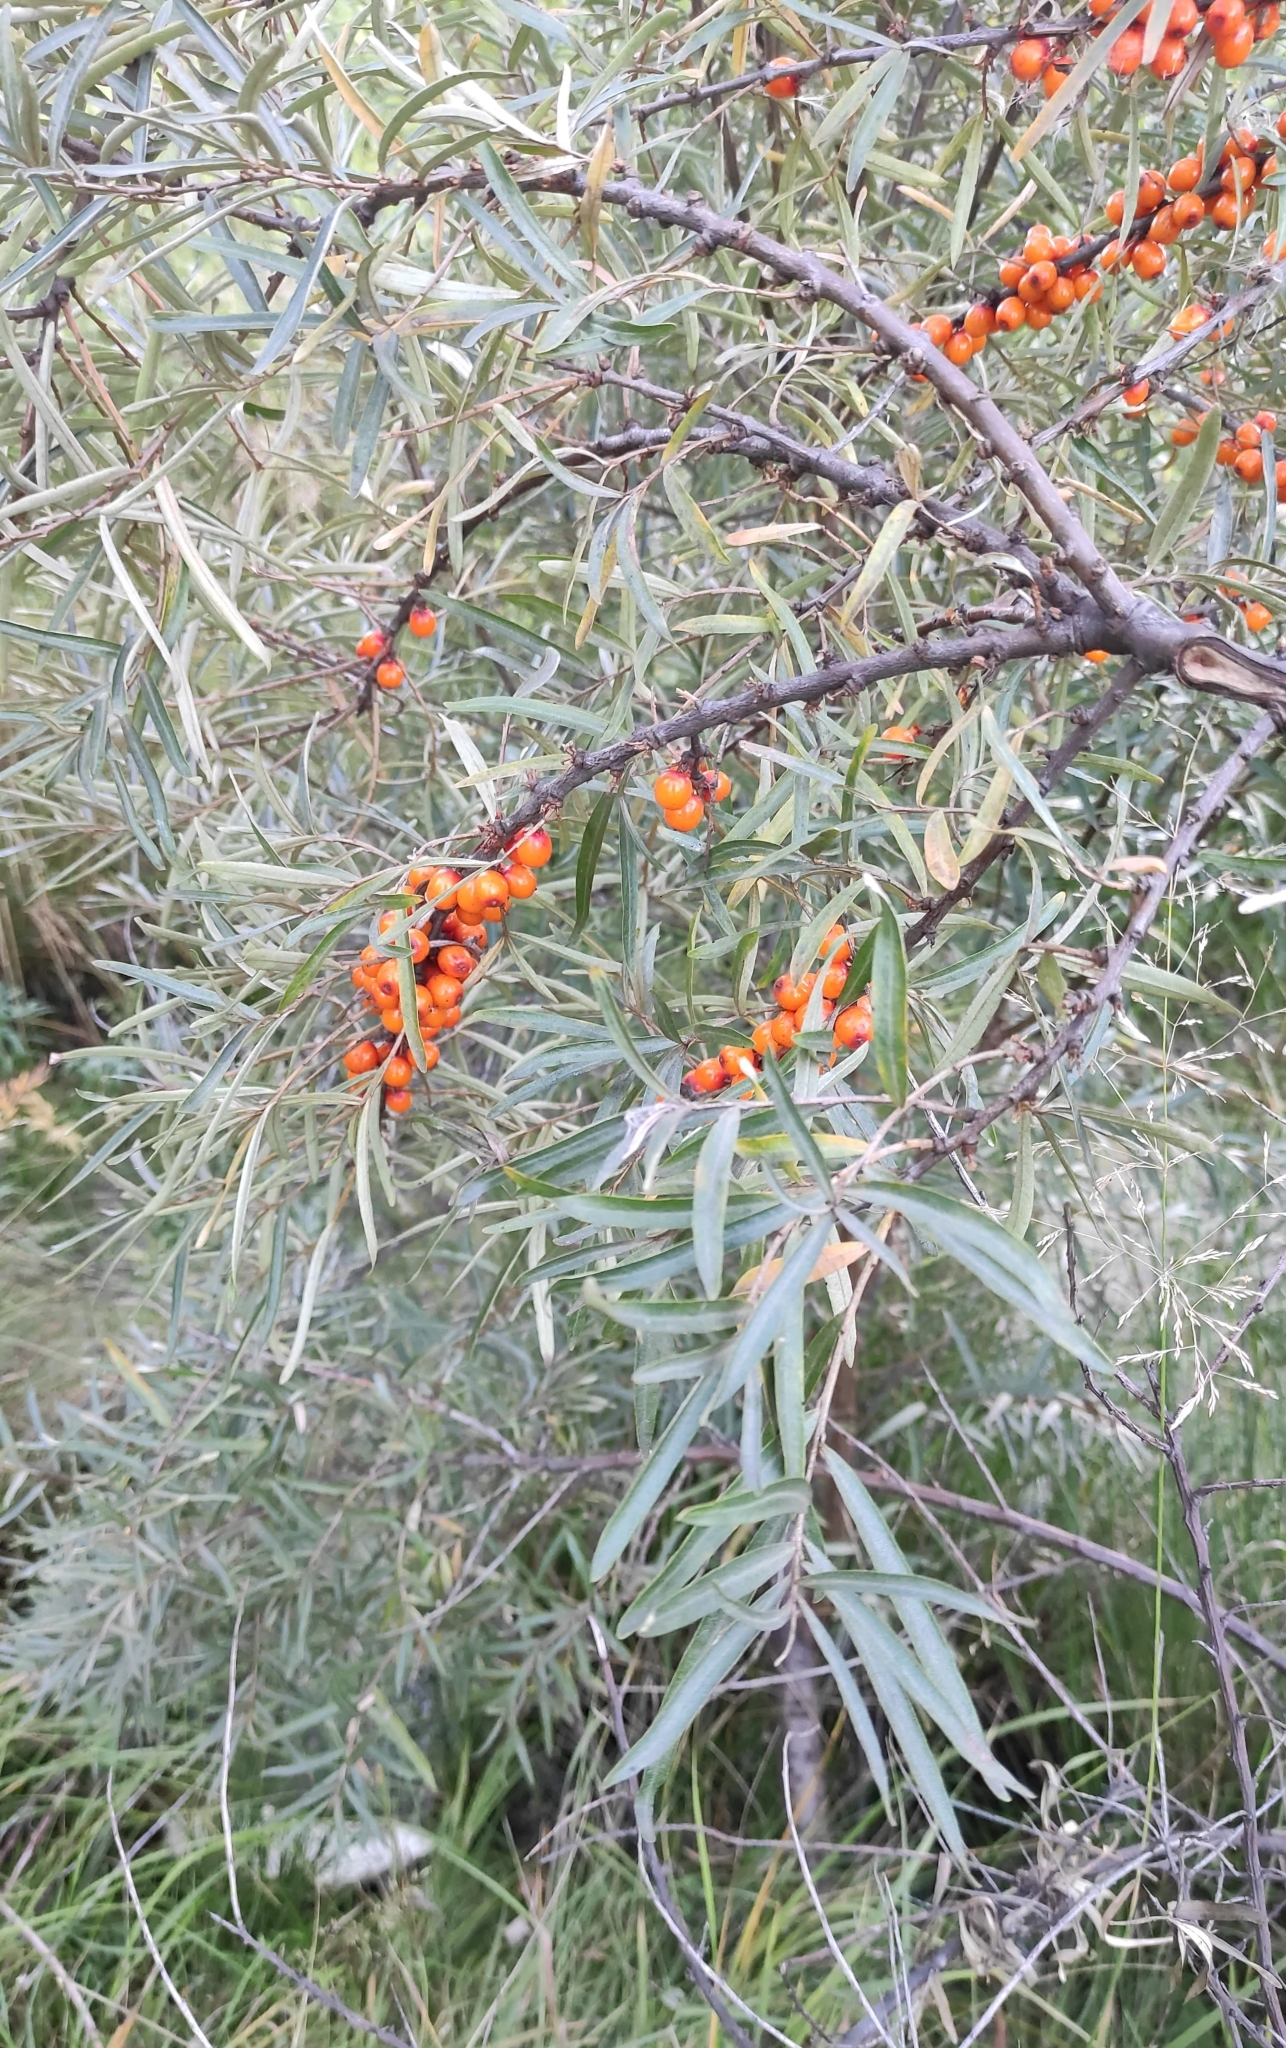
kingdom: Plantae
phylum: Tracheophyta
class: Magnoliopsida
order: Rosales
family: Elaeagnaceae
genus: Hippophae
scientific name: Hippophae rhamnoides
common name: Sea-buckthorn
